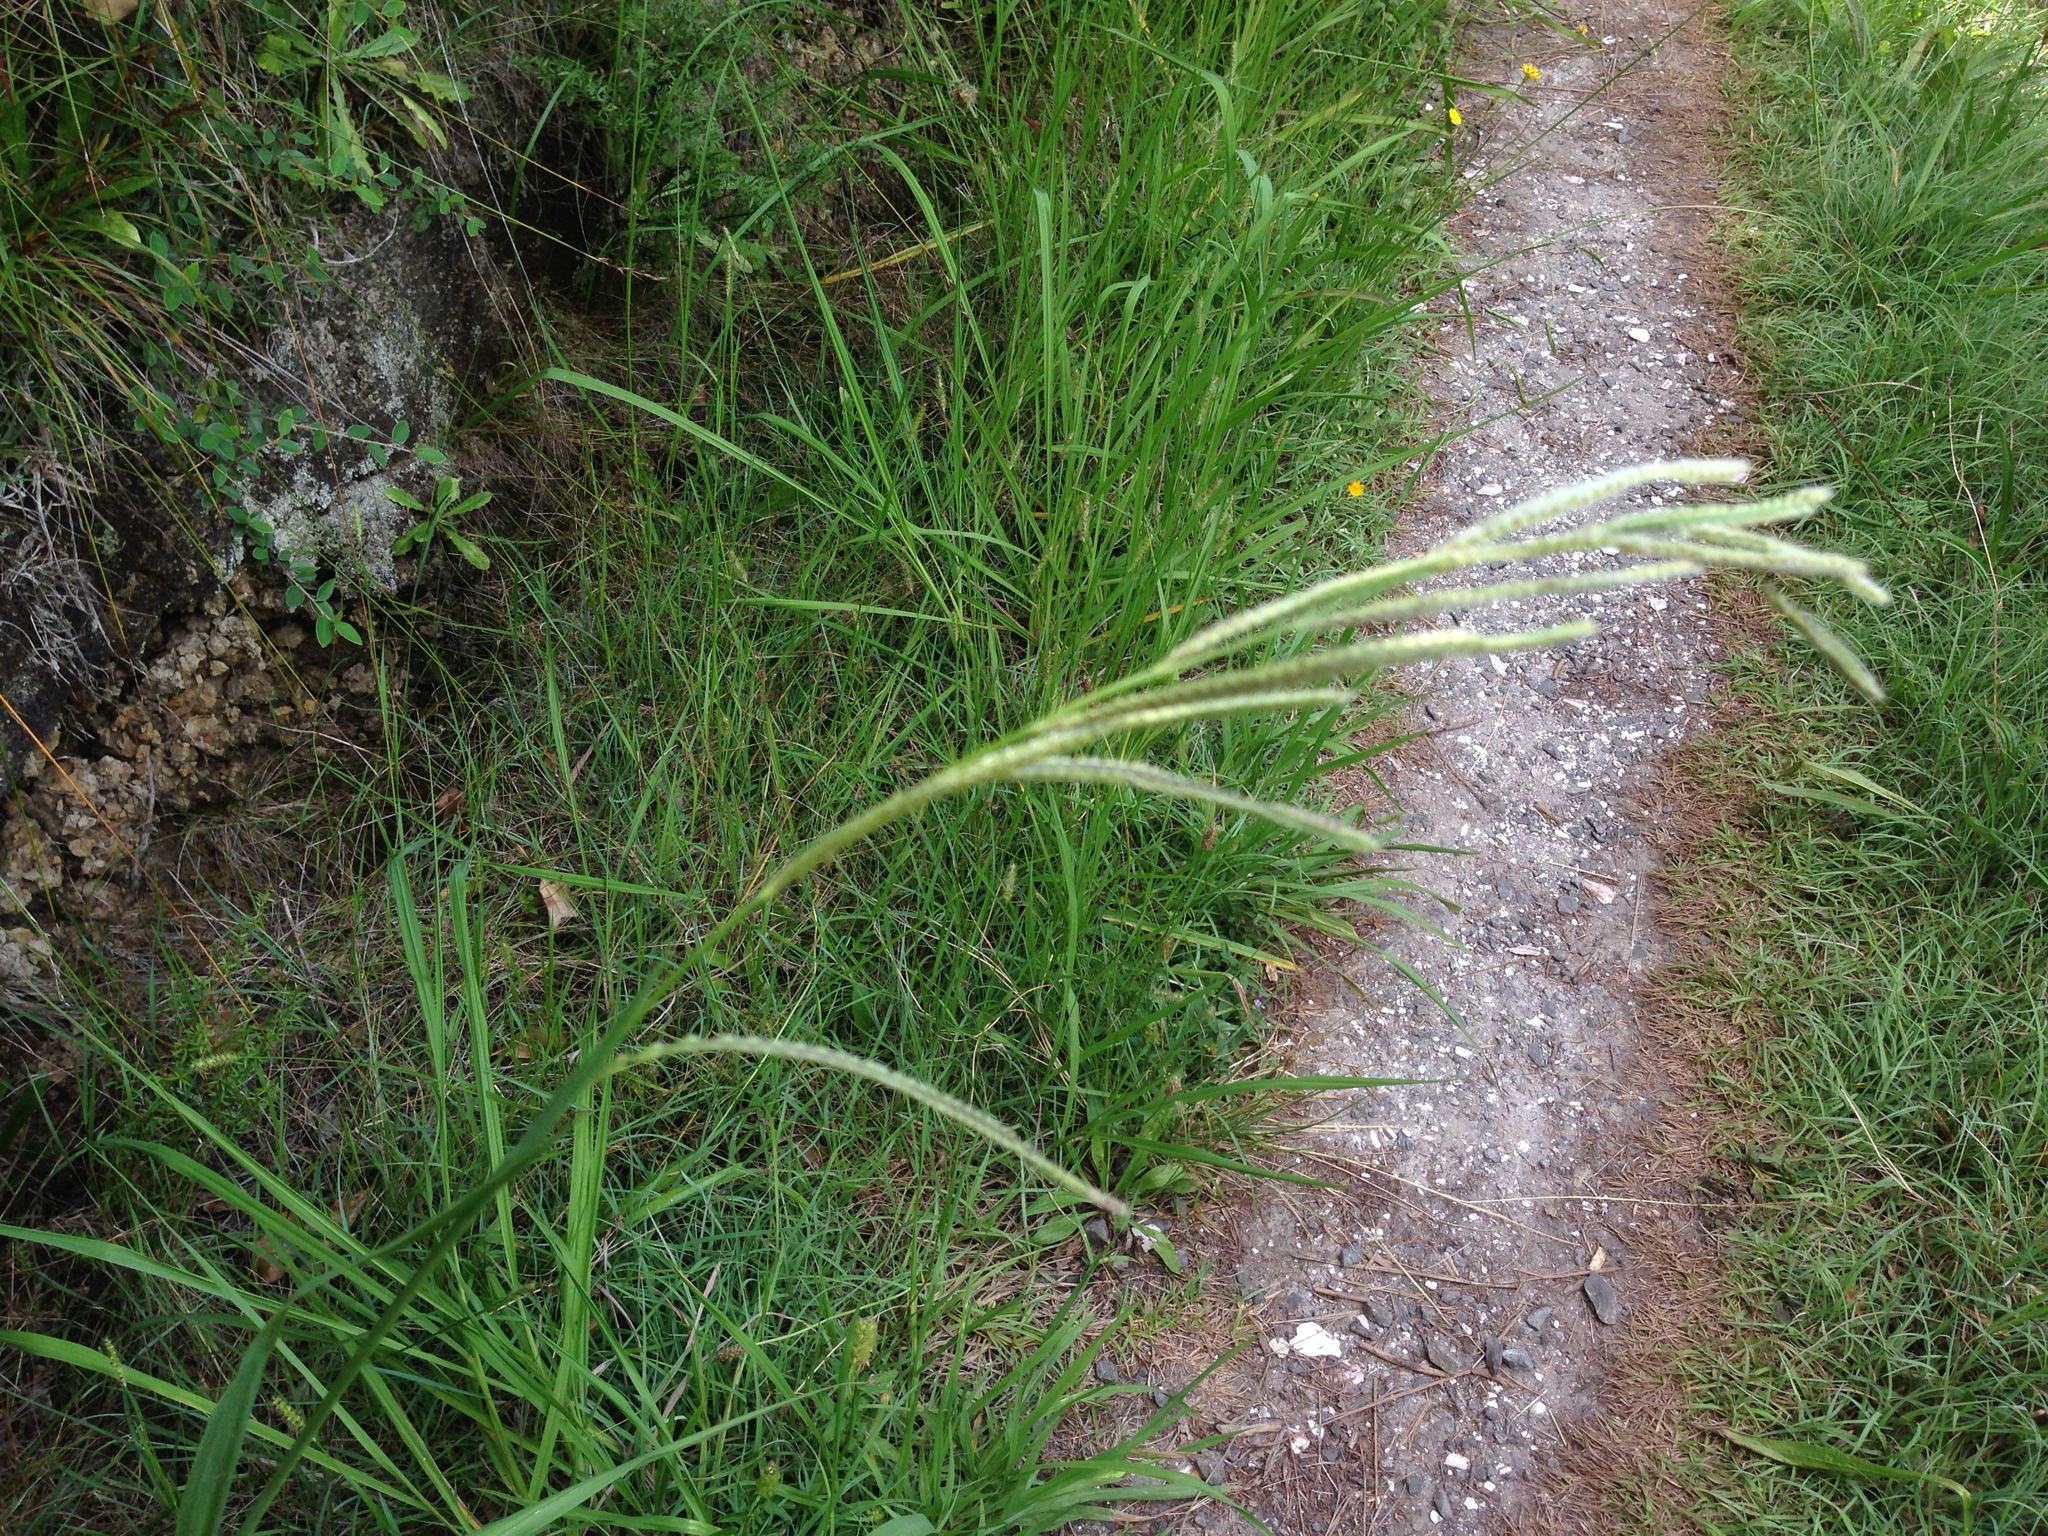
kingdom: Plantae
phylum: Tracheophyta
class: Liliopsida
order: Poales
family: Poaceae
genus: Paspalum
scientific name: Paspalum urvillei
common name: Vasey's grass
